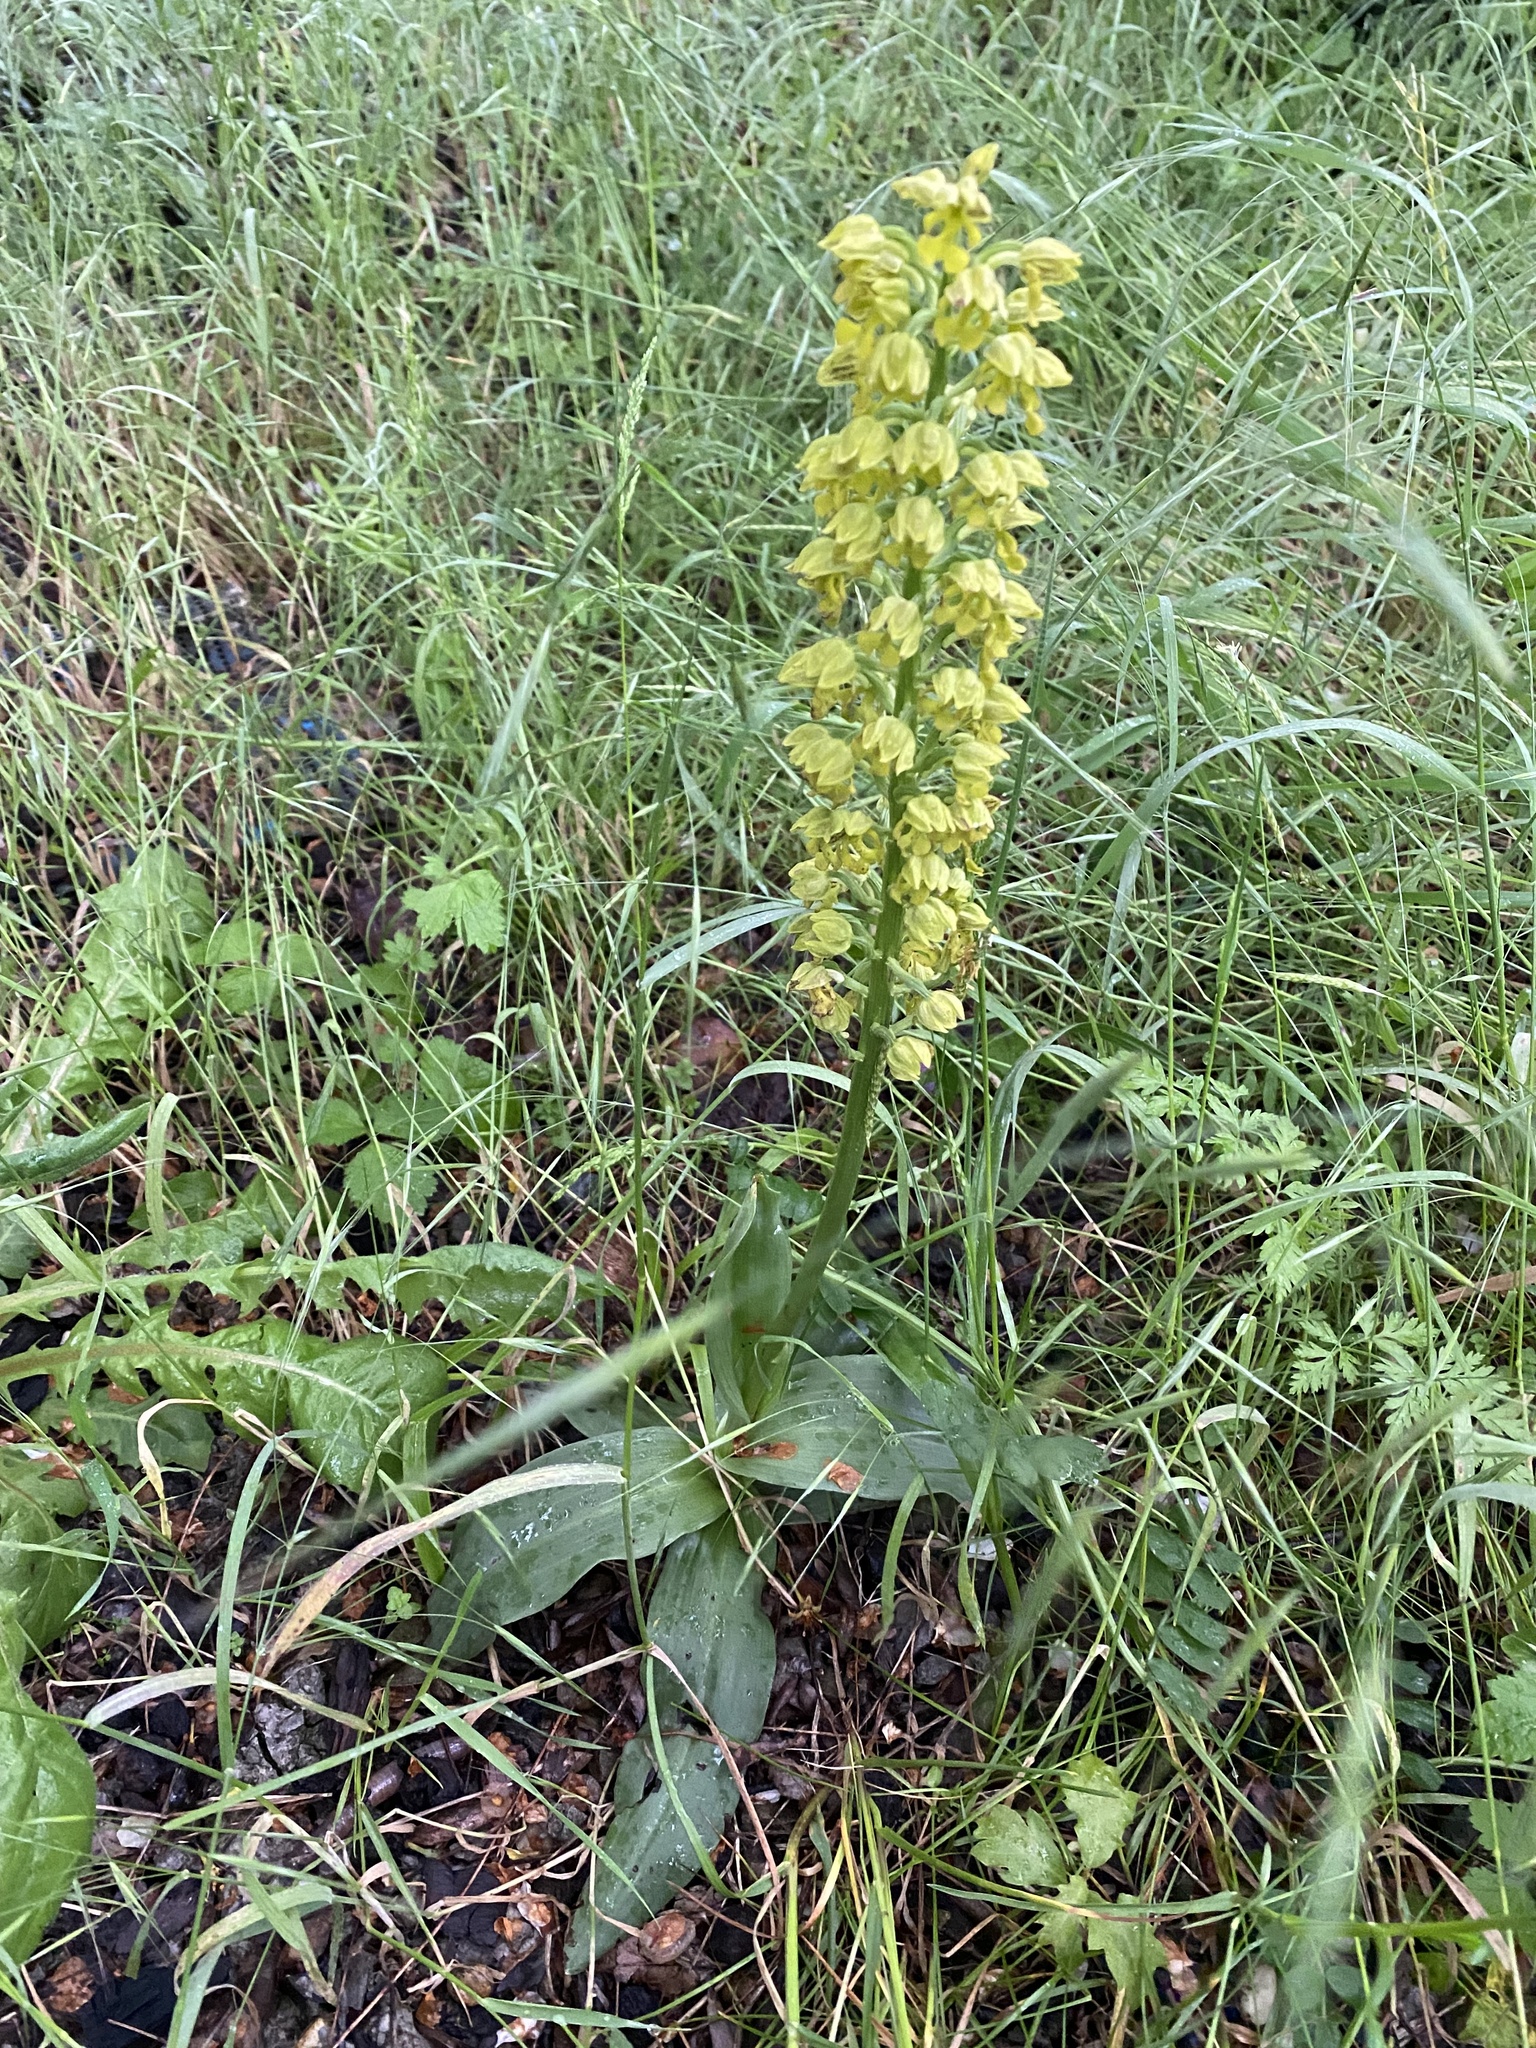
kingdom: Plantae
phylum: Tracheophyta
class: Liliopsida
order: Asparagales
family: Orchidaceae
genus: Orchis
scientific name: Orchis punctulata
